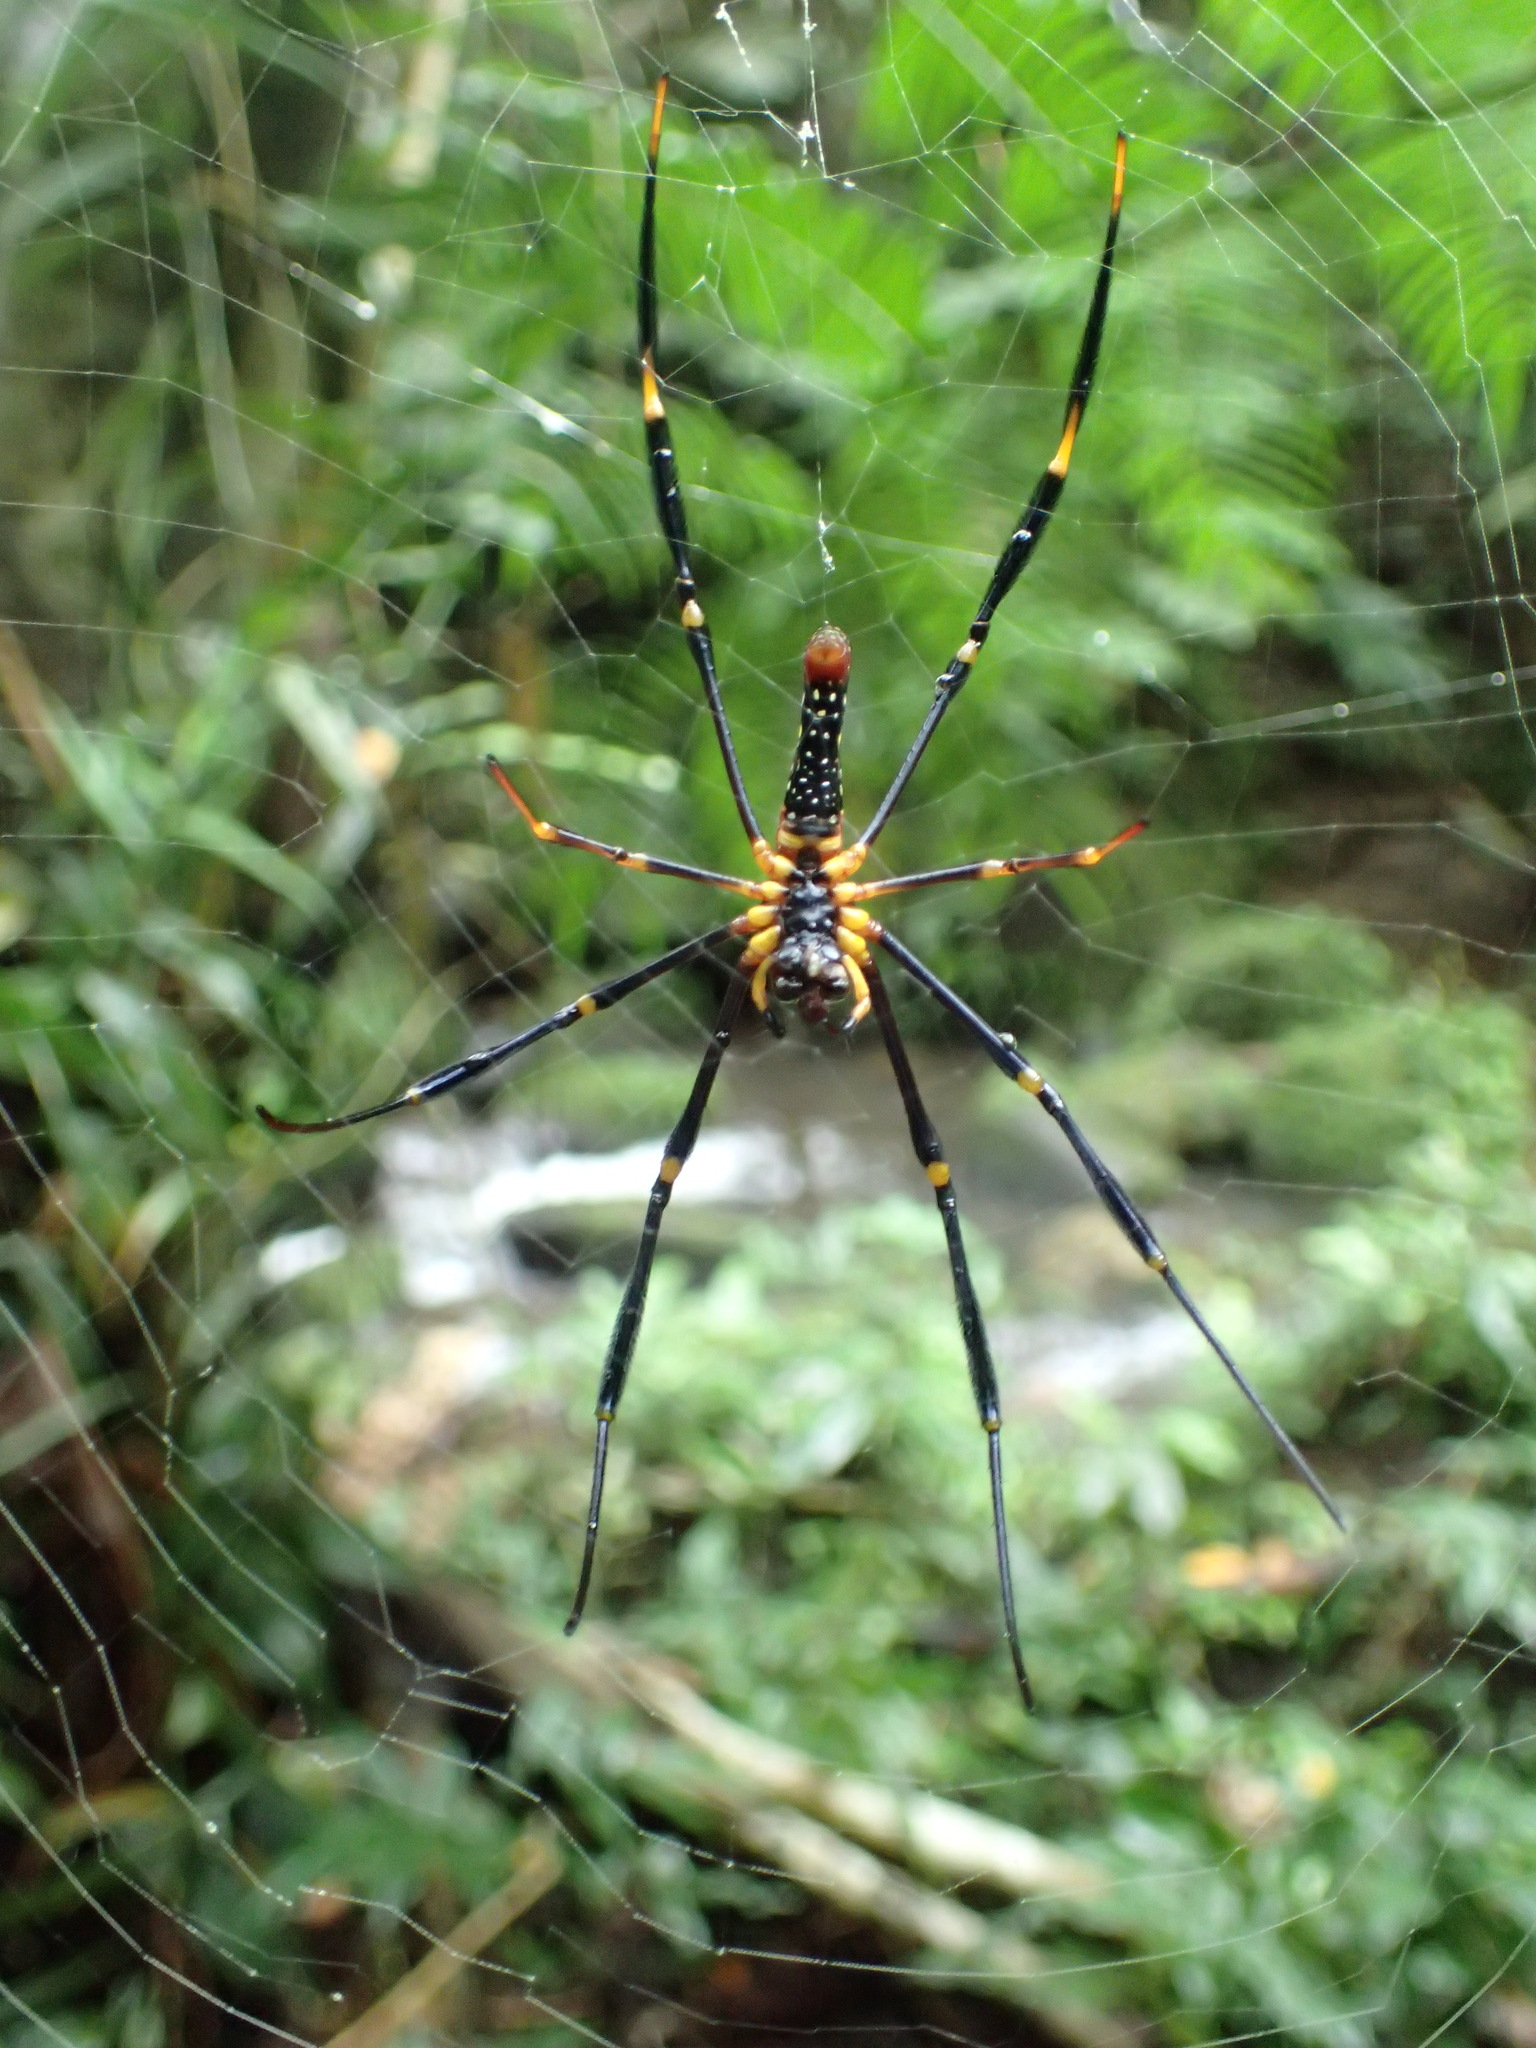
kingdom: Animalia
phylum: Arthropoda
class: Arachnida
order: Araneae
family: Araneidae
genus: Nephila
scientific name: Nephila pilipes
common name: Giant golden orb weaver
